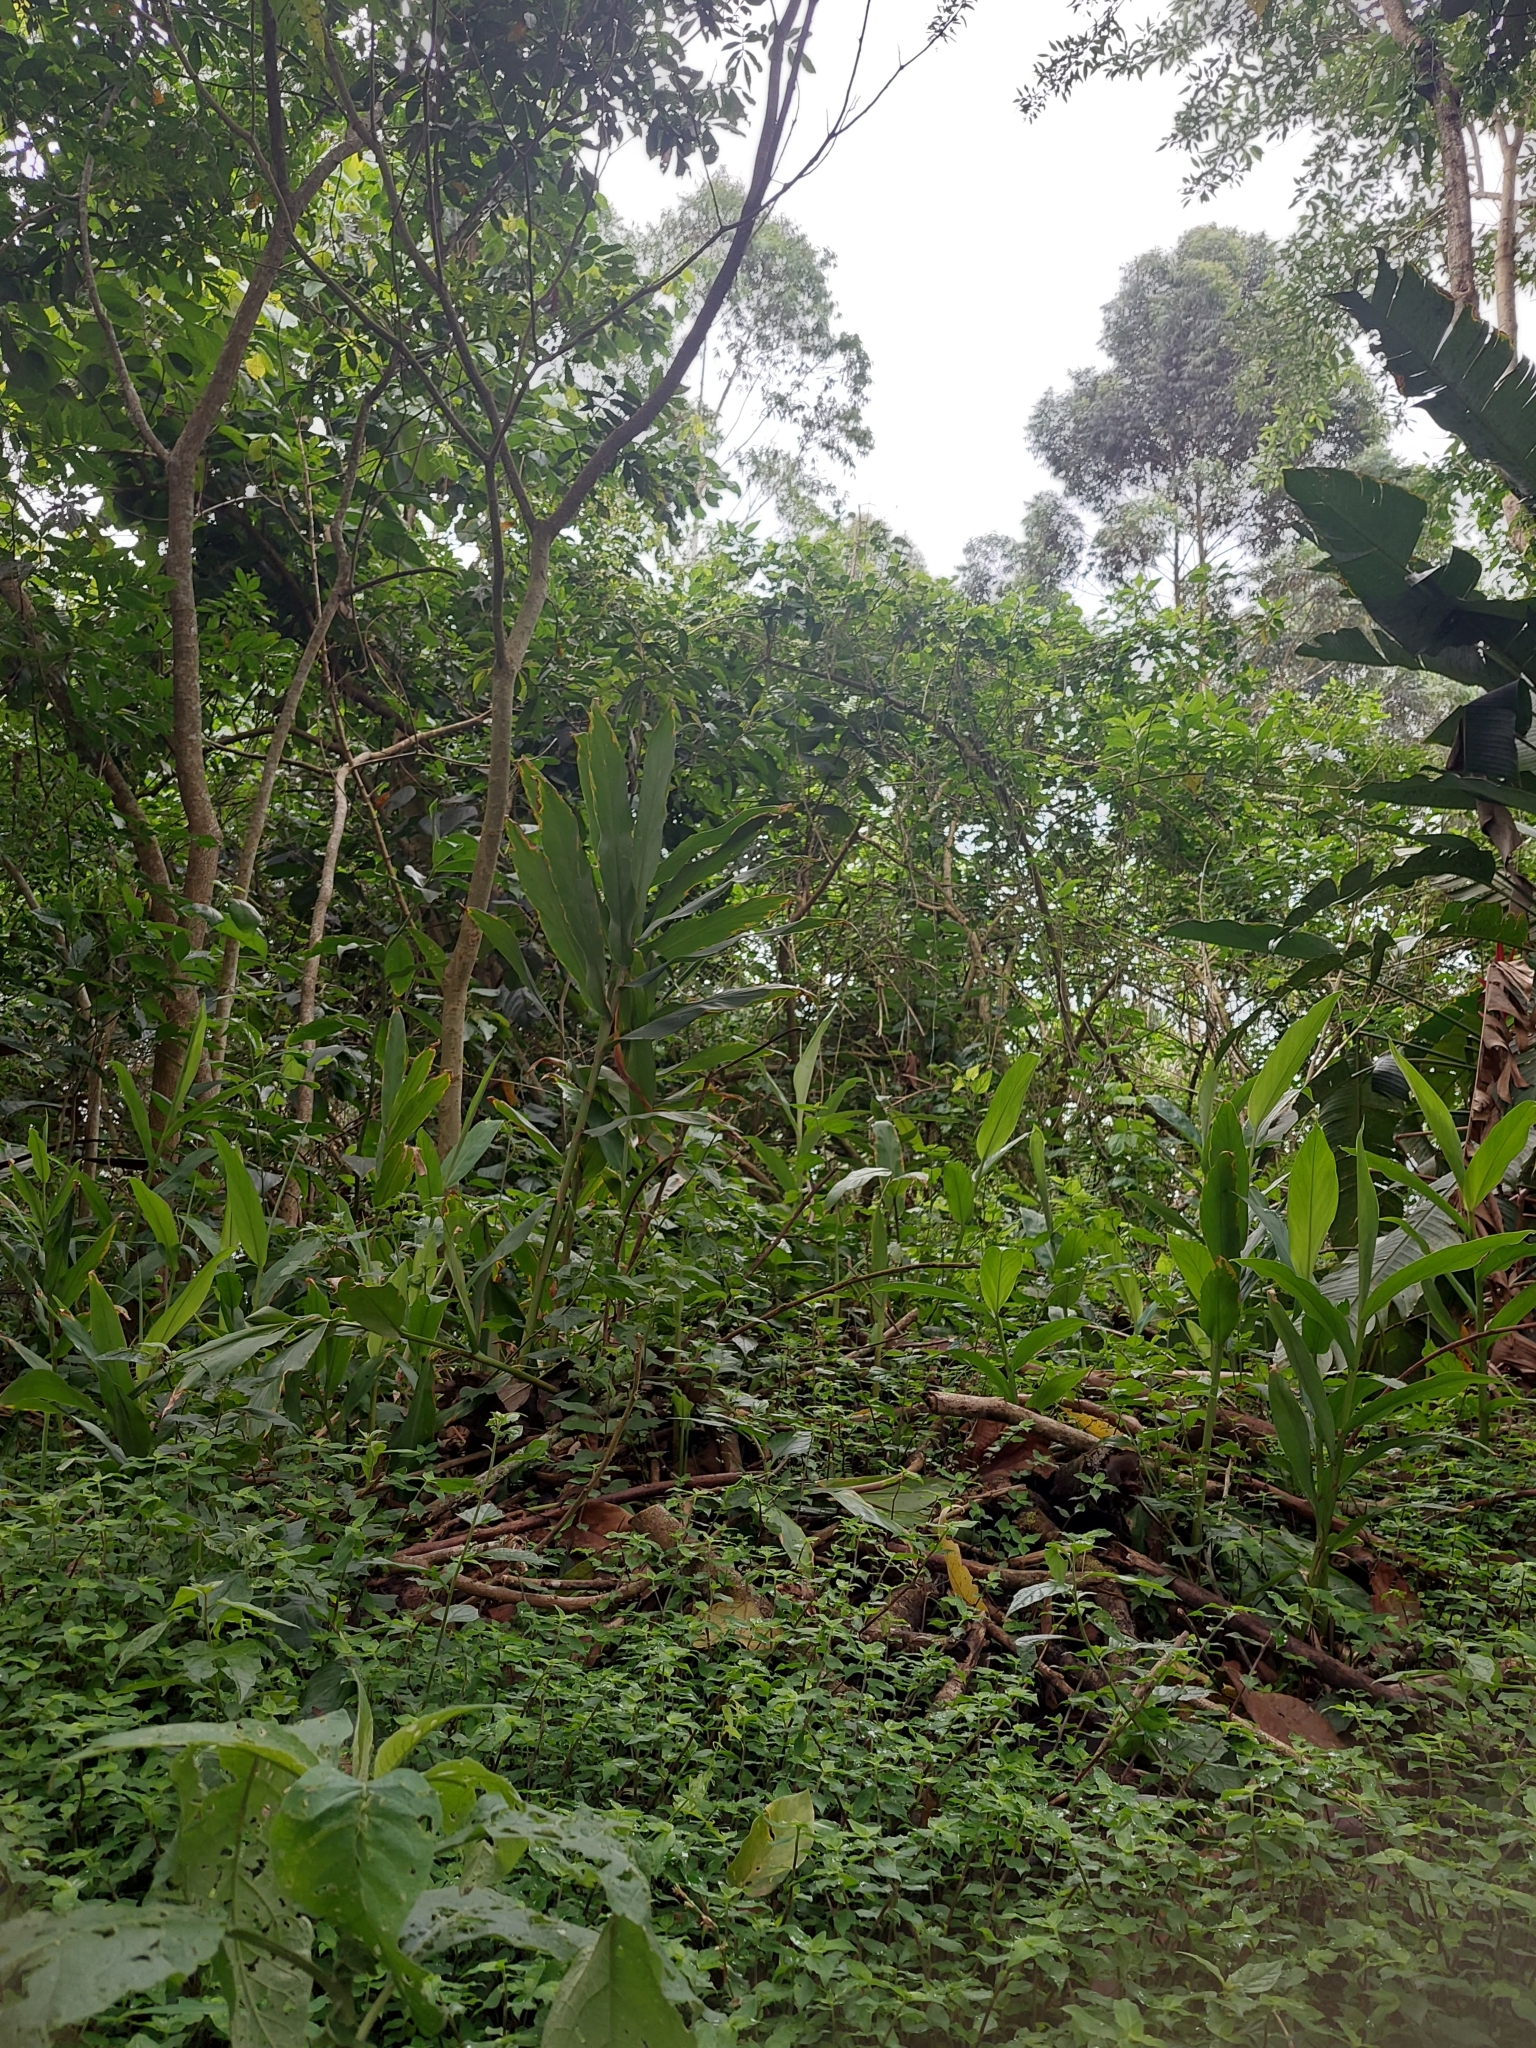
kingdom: Plantae
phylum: Tracheophyta
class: Liliopsida
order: Zingiberales
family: Zingiberaceae
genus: Hedychium
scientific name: Hedychium coronarium
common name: White garland-lily
